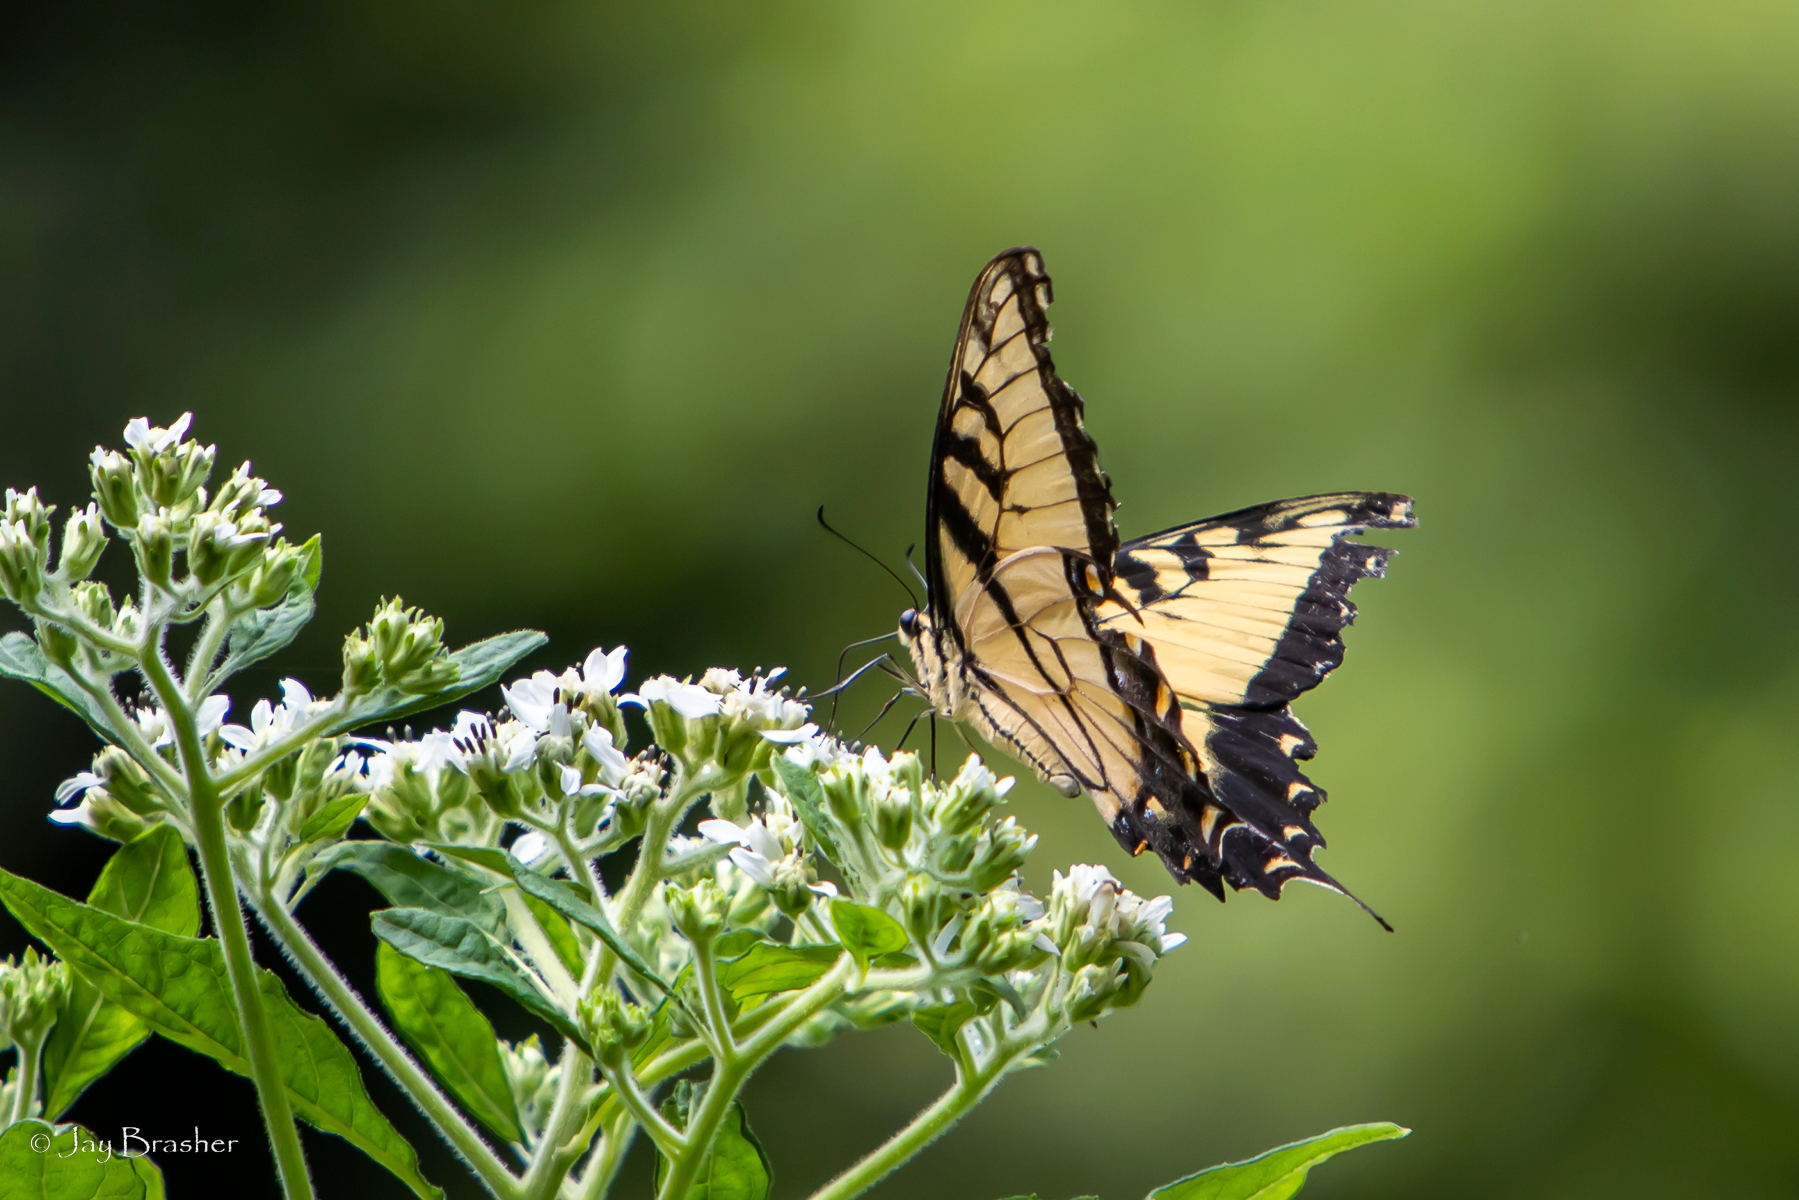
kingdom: Animalia
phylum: Arthropoda
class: Insecta
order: Lepidoptera
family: Papilionidae
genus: Papilio
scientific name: Papilio glaucus
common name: Tiger swallowtail
